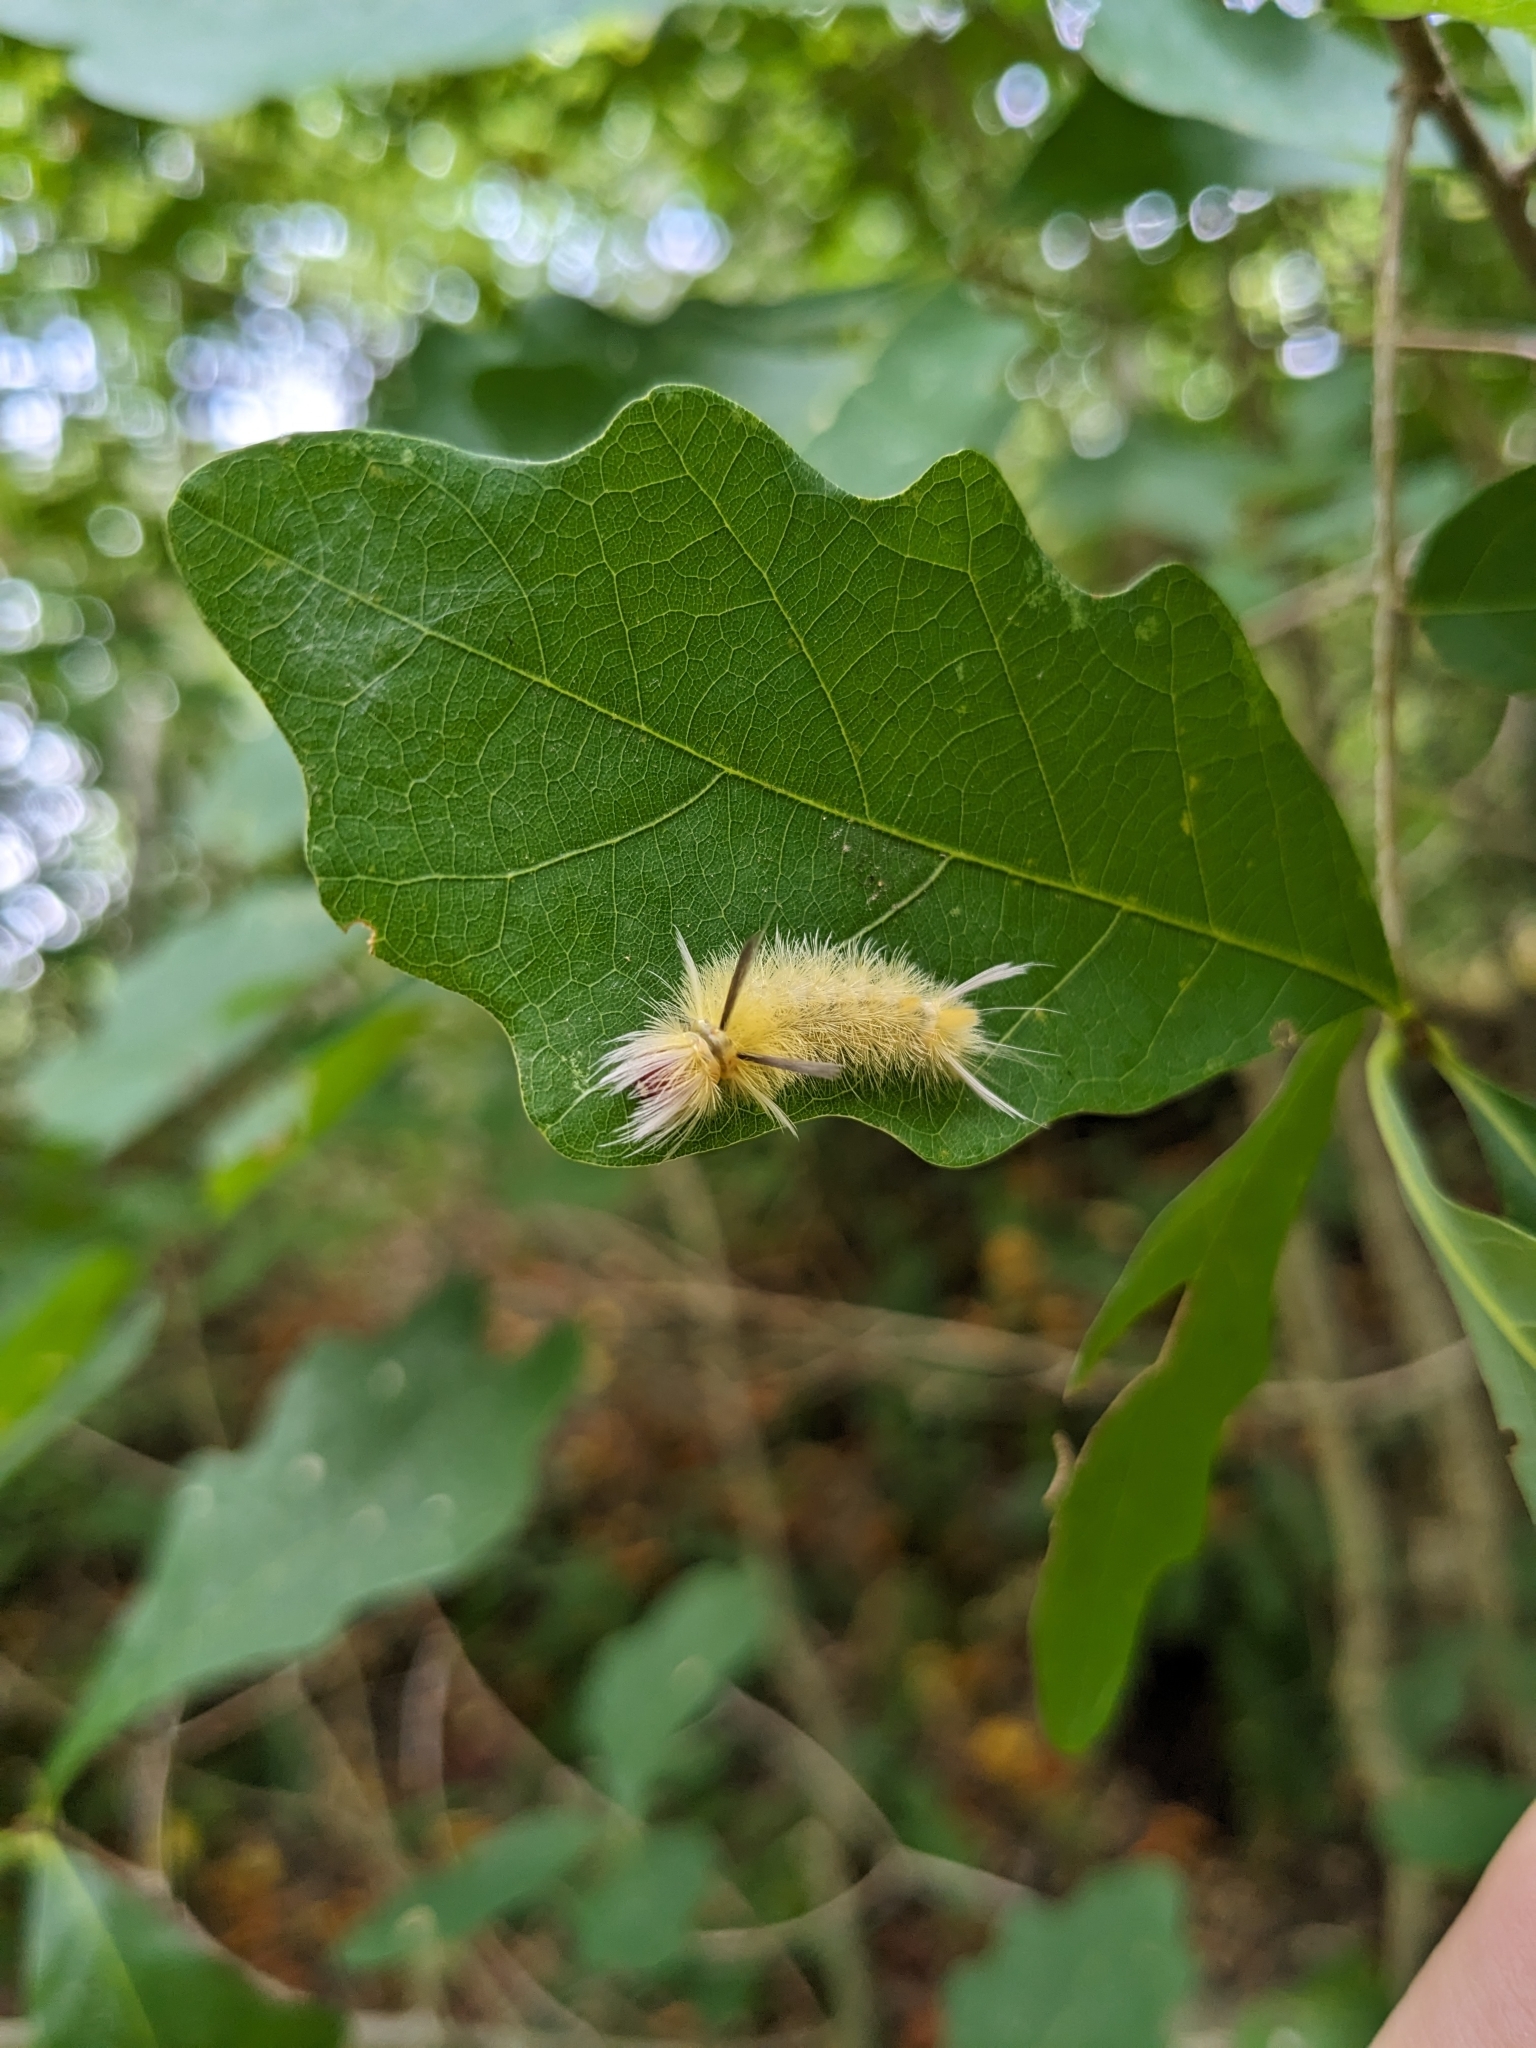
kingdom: Animalia
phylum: Arthropoda
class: Insecta
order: Lepidoptera
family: Erebidae
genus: Halysidota
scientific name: Halysidota tessellaris
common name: Banded tussock moth
